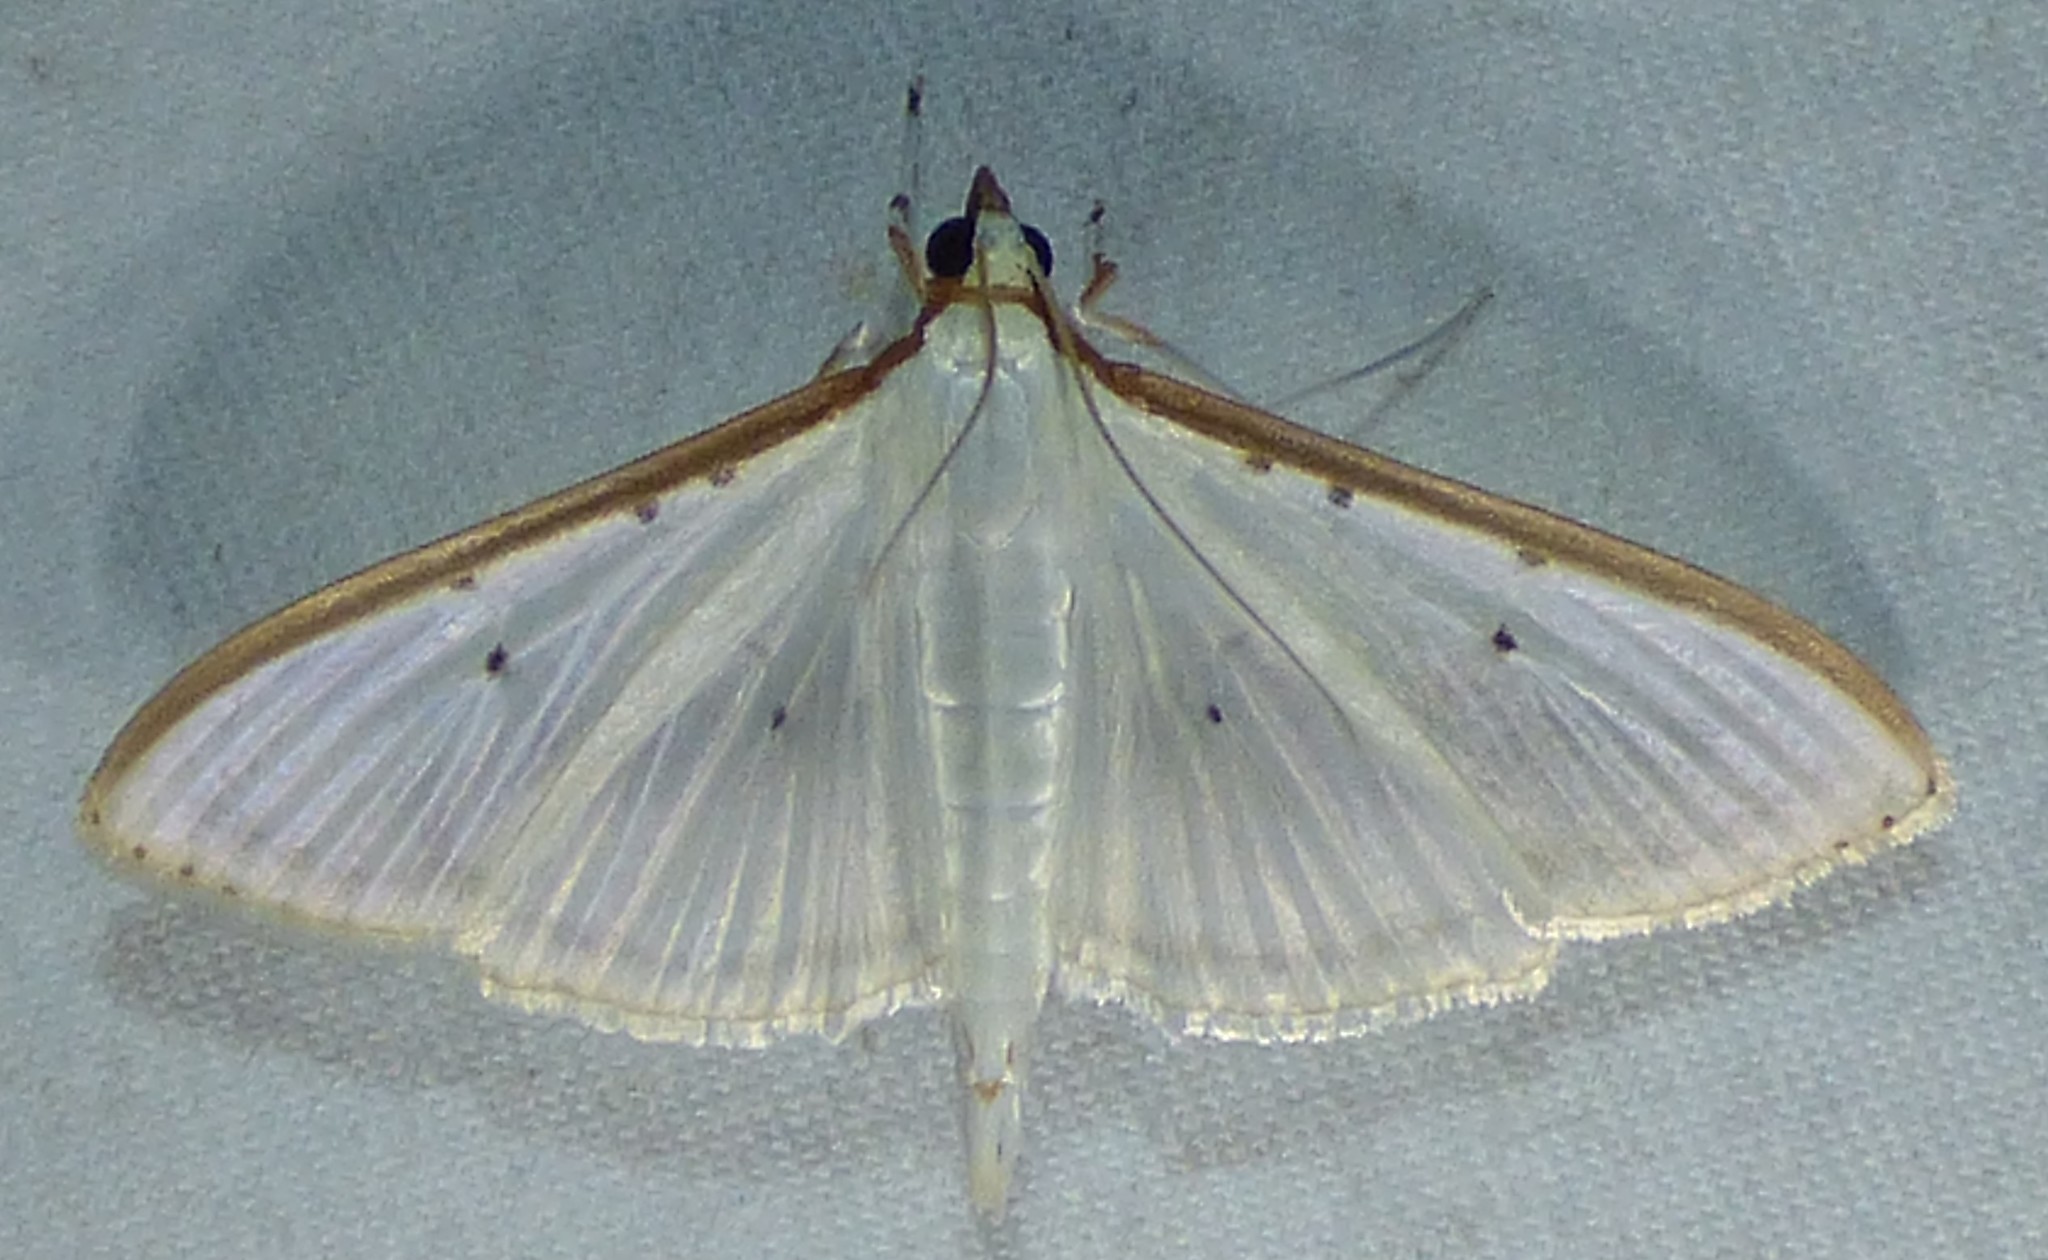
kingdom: Animalia
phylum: Arthropoda
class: Insecta
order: Lepidoptera
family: Crambidae
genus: Palpita
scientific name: Palpita quadristigmalis
